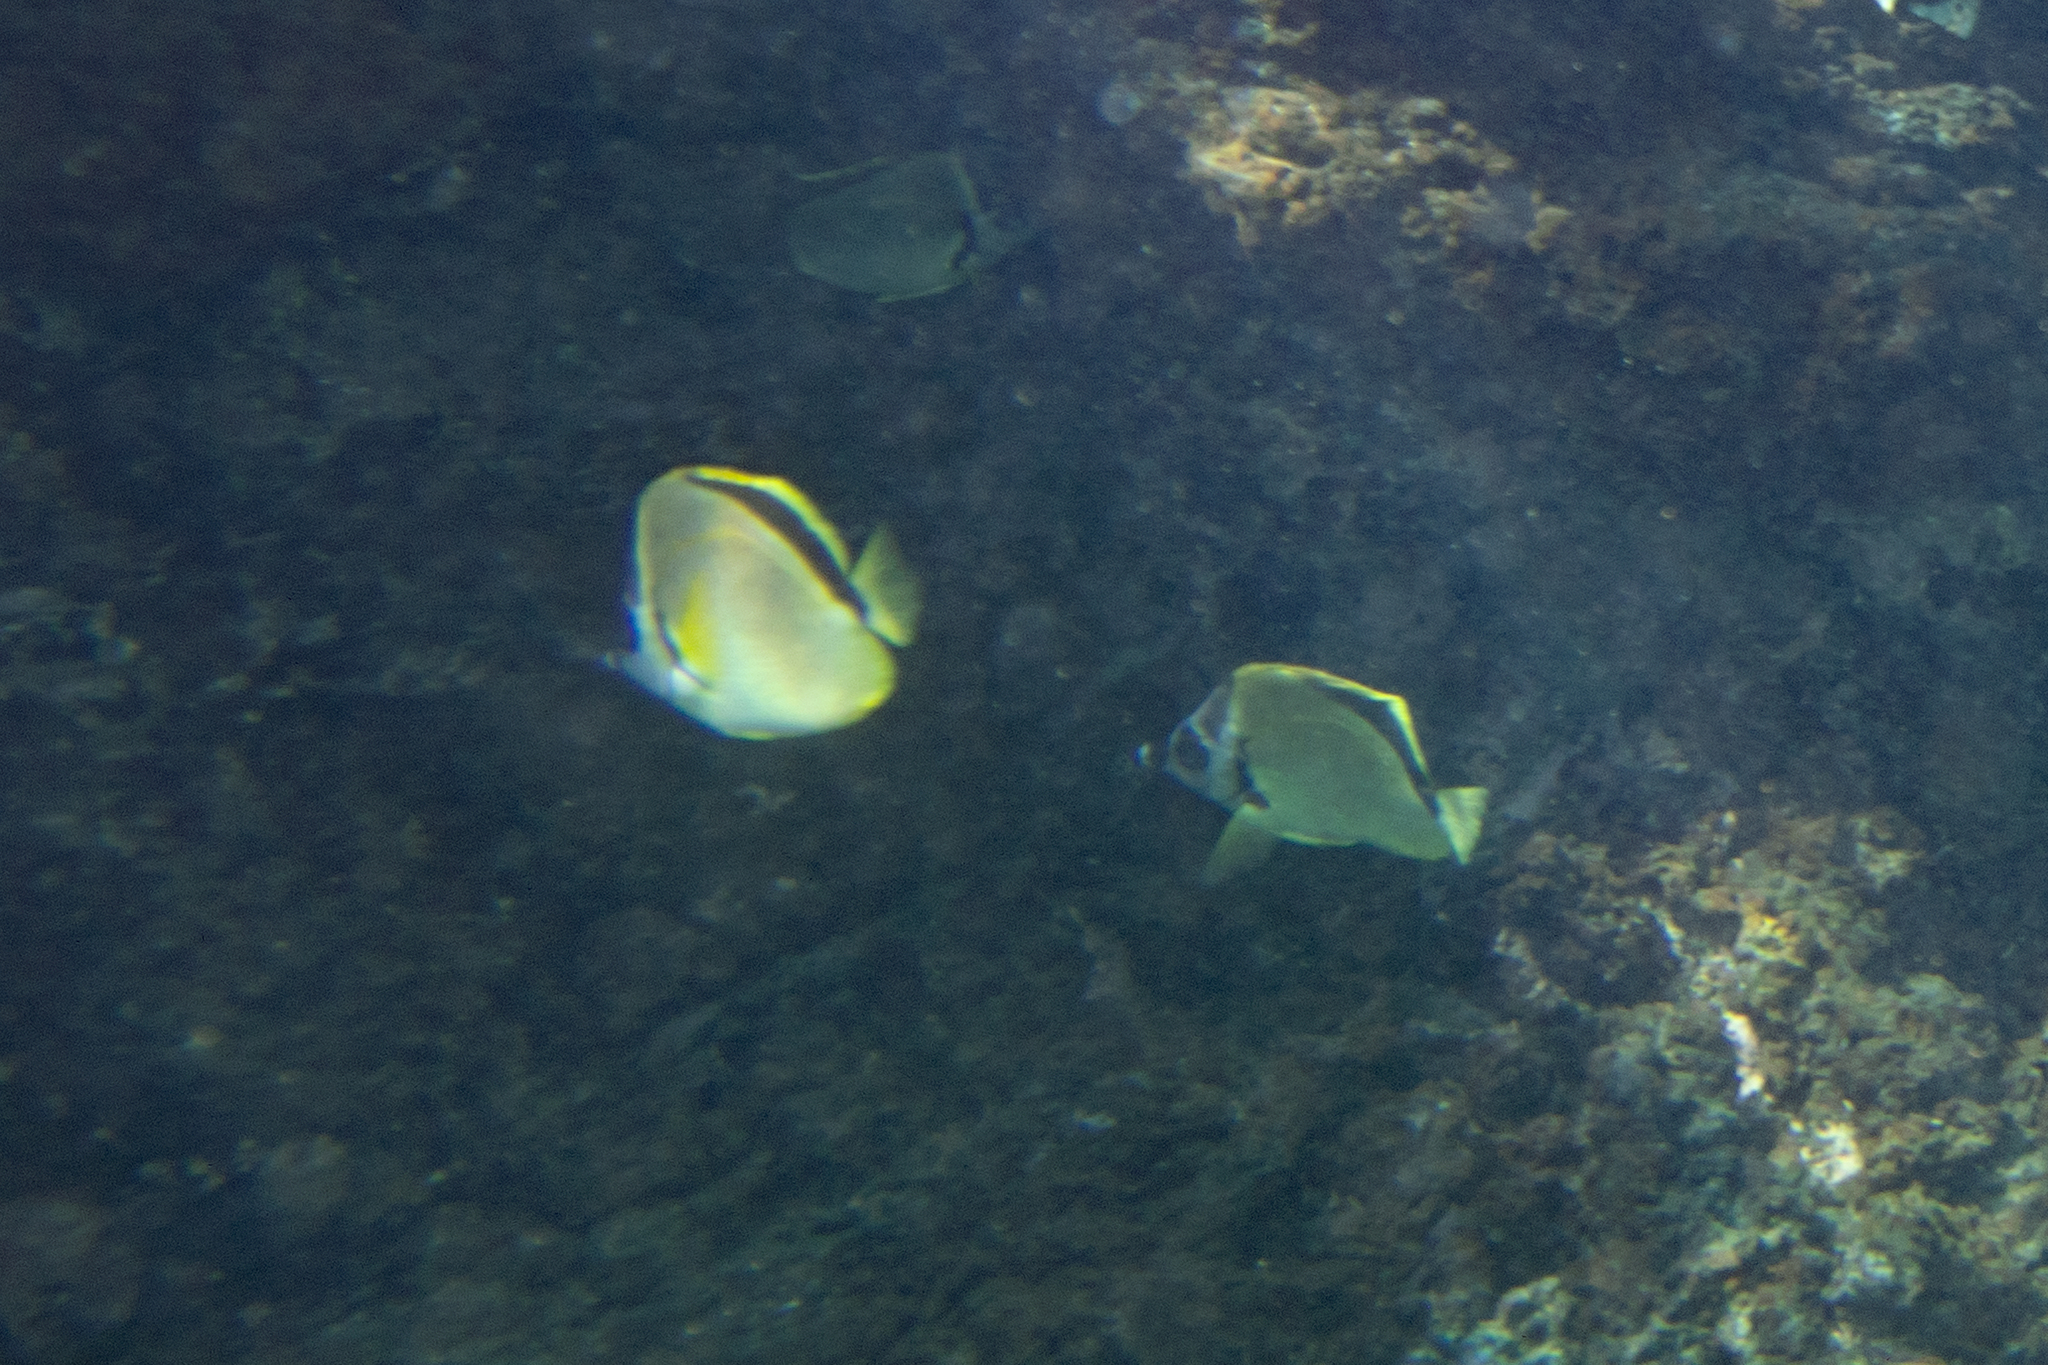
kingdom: Animalia
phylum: Chordata
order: Perciformes
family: Chaetodontidae
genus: Johnrandallia
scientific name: Johnrandallia nigrirostris
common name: Barberfish
